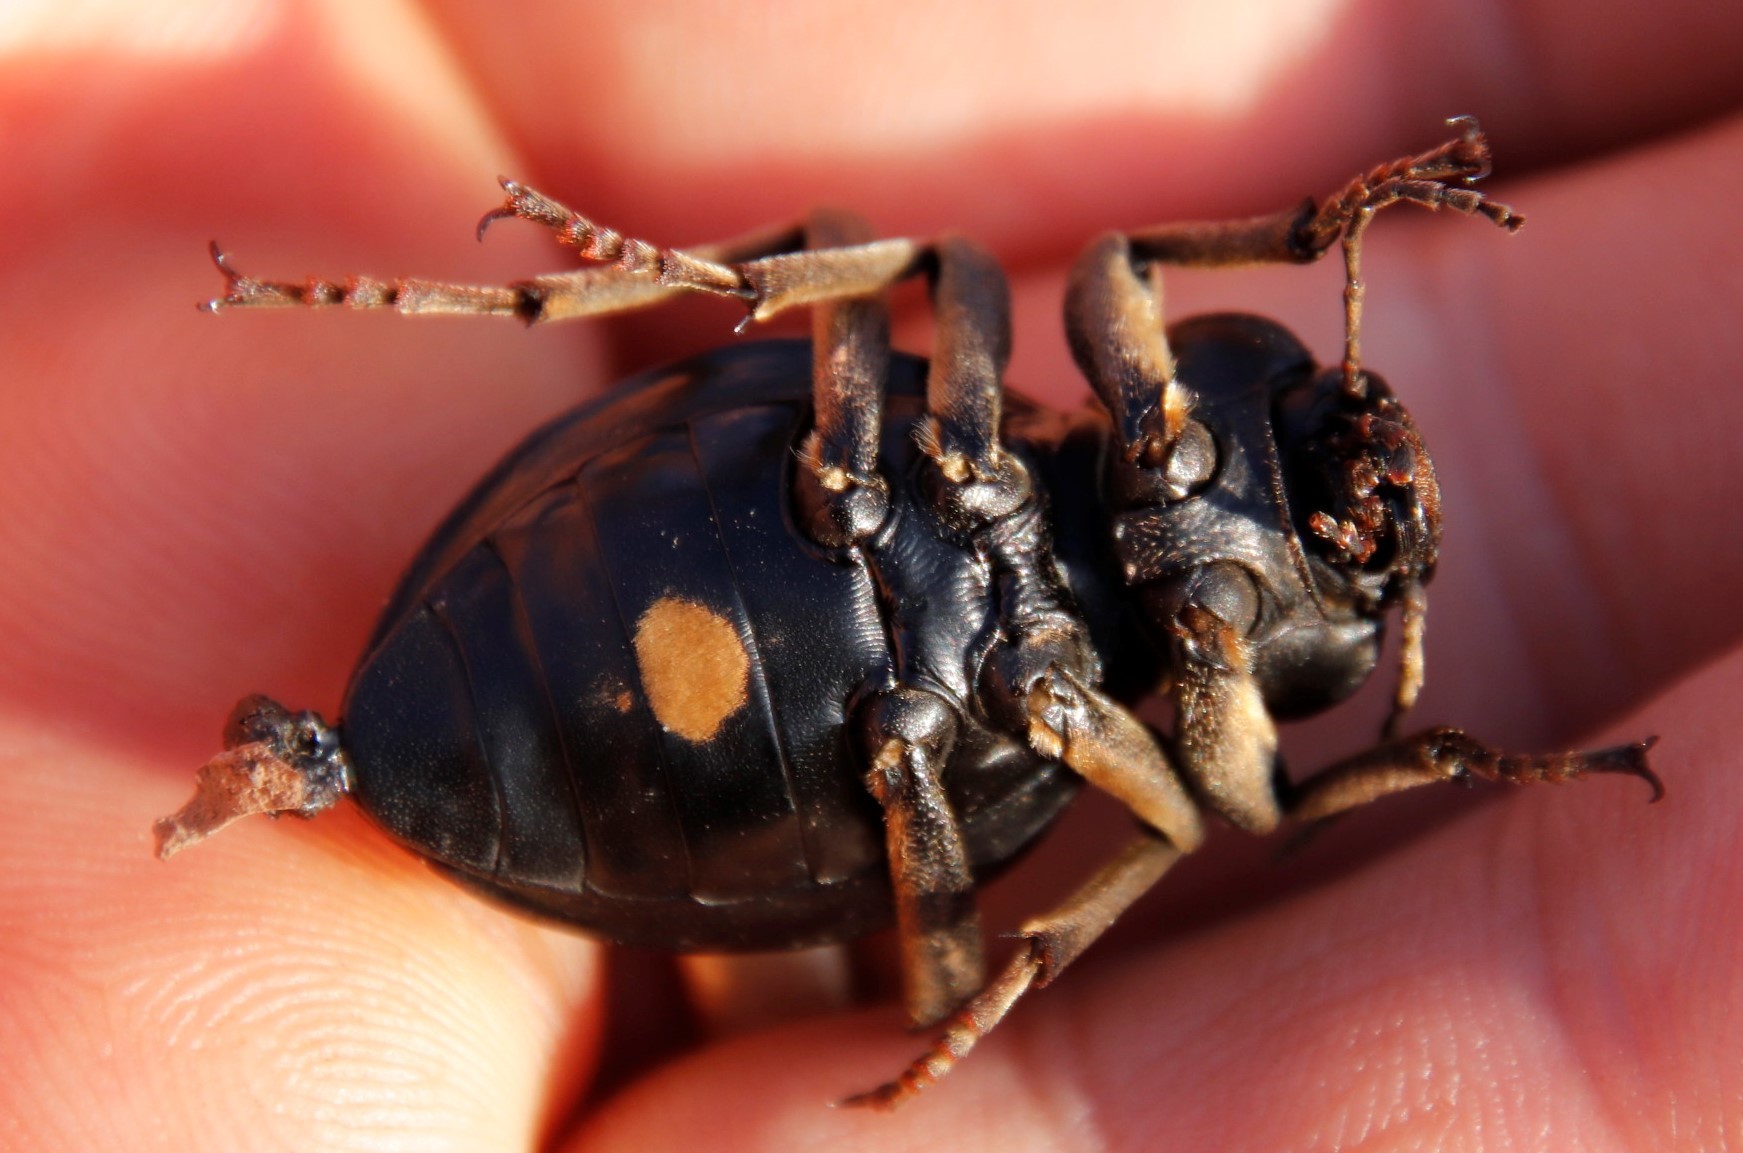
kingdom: Animalia
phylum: Arthropoda
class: Insecta
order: Coleoptera
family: Tenebrionidae
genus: Mariazofia
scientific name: Mariazofia
